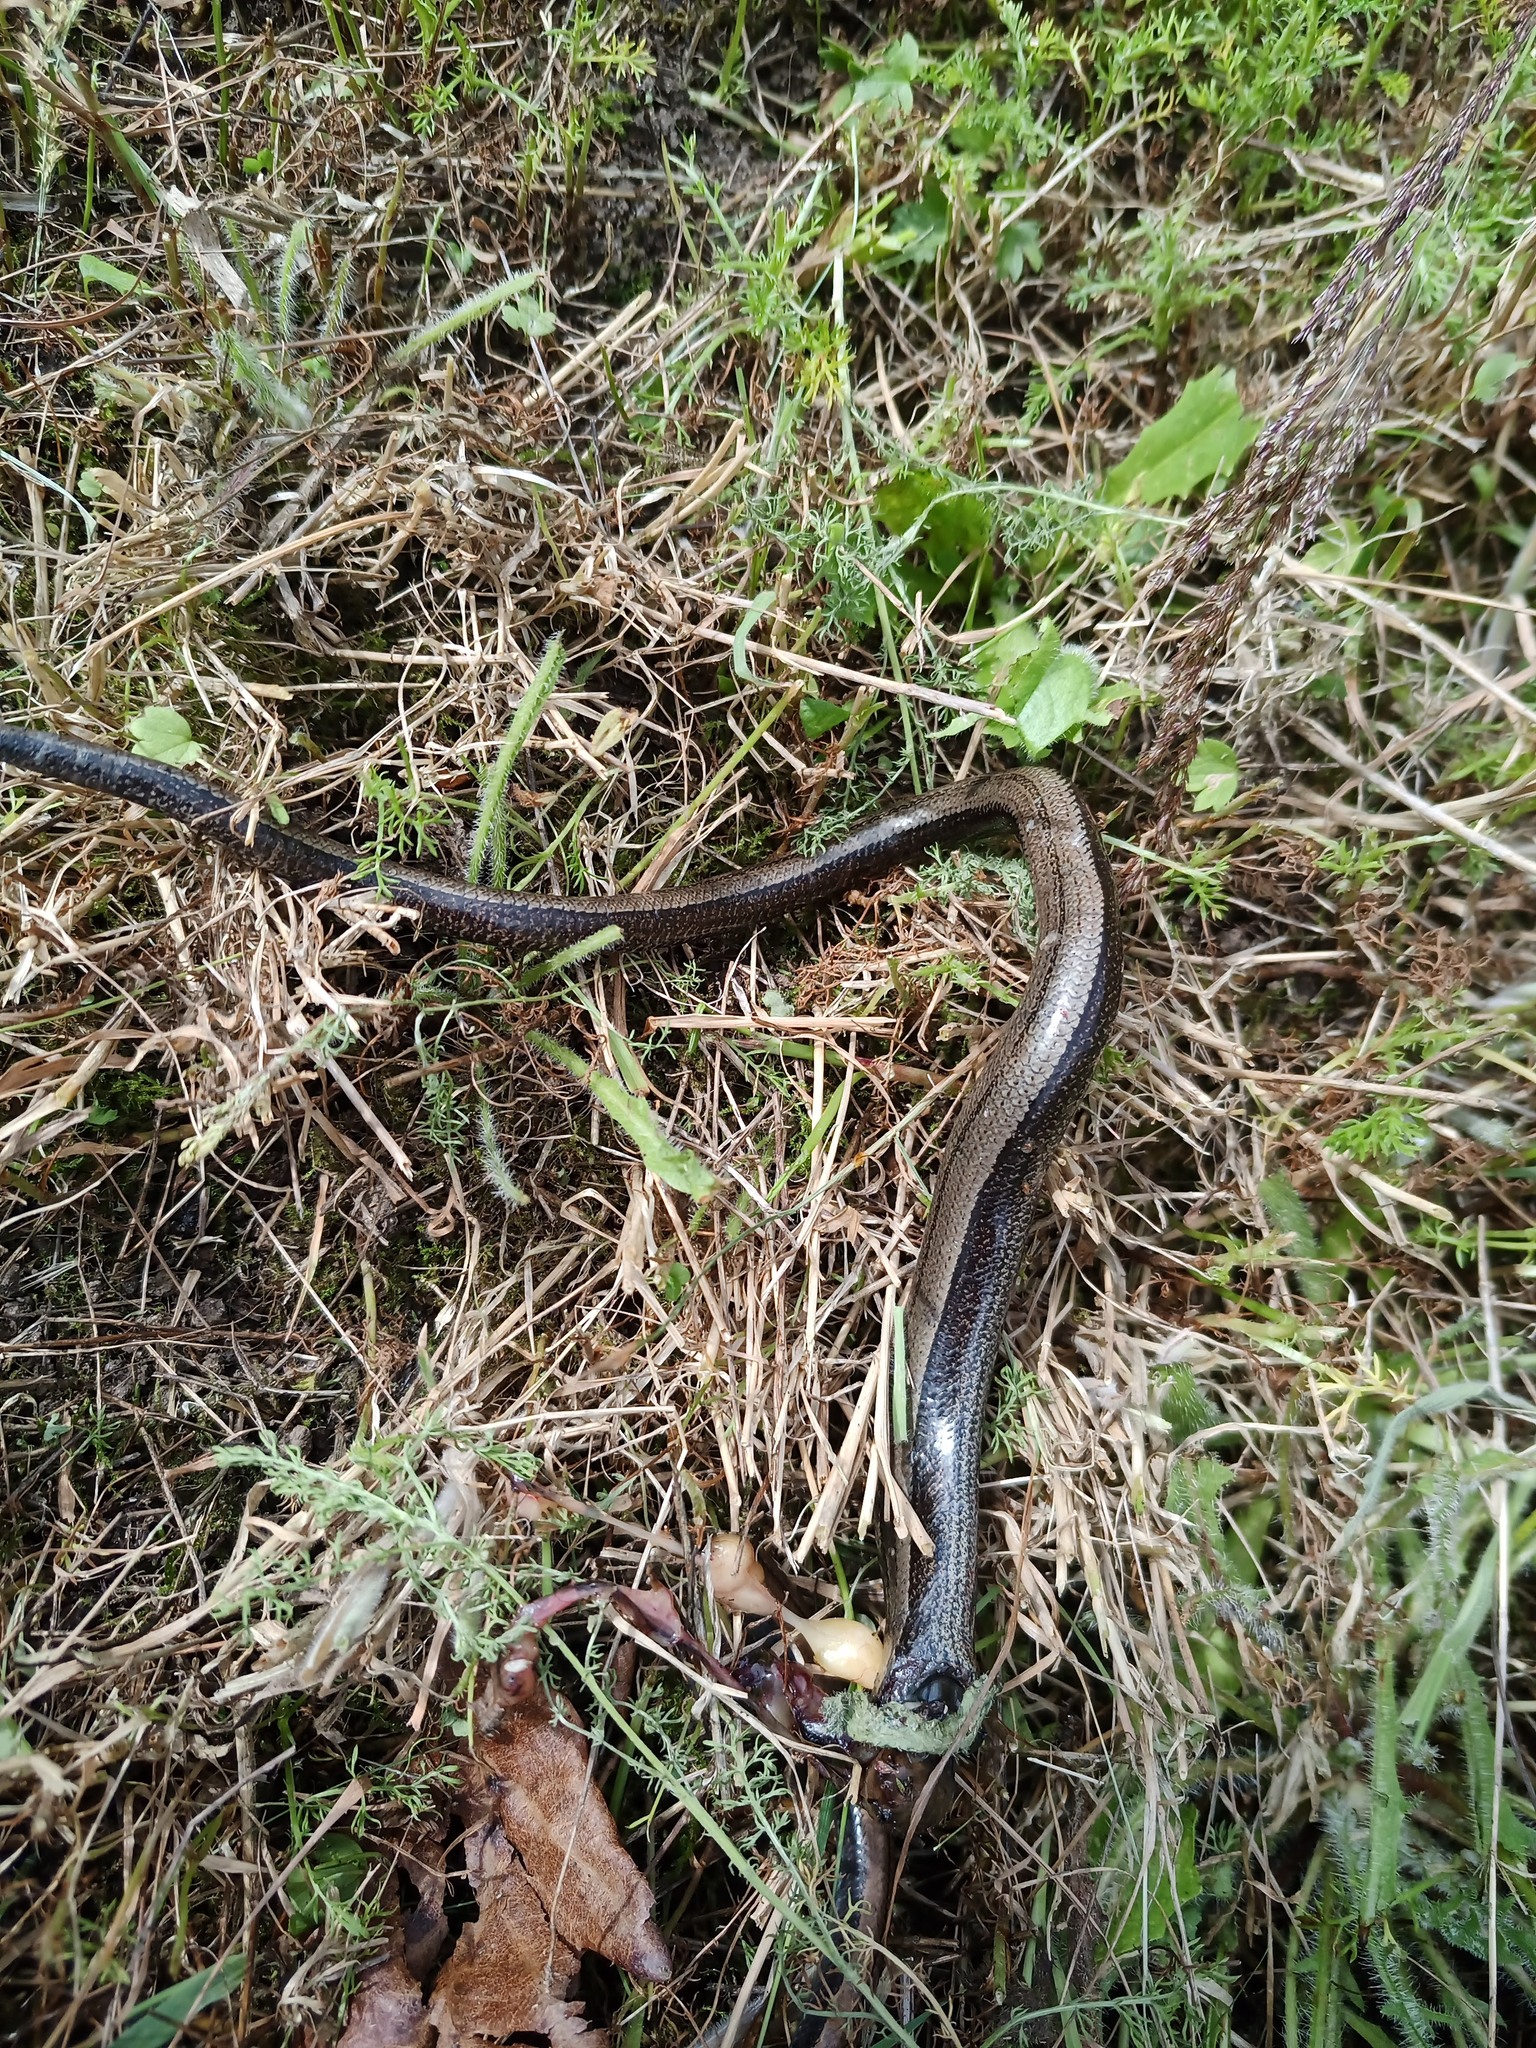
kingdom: Animalia
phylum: Chordata
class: Squamata
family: Anguidae
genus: Anguis
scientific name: Anguis fragilis
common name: Slow worm
